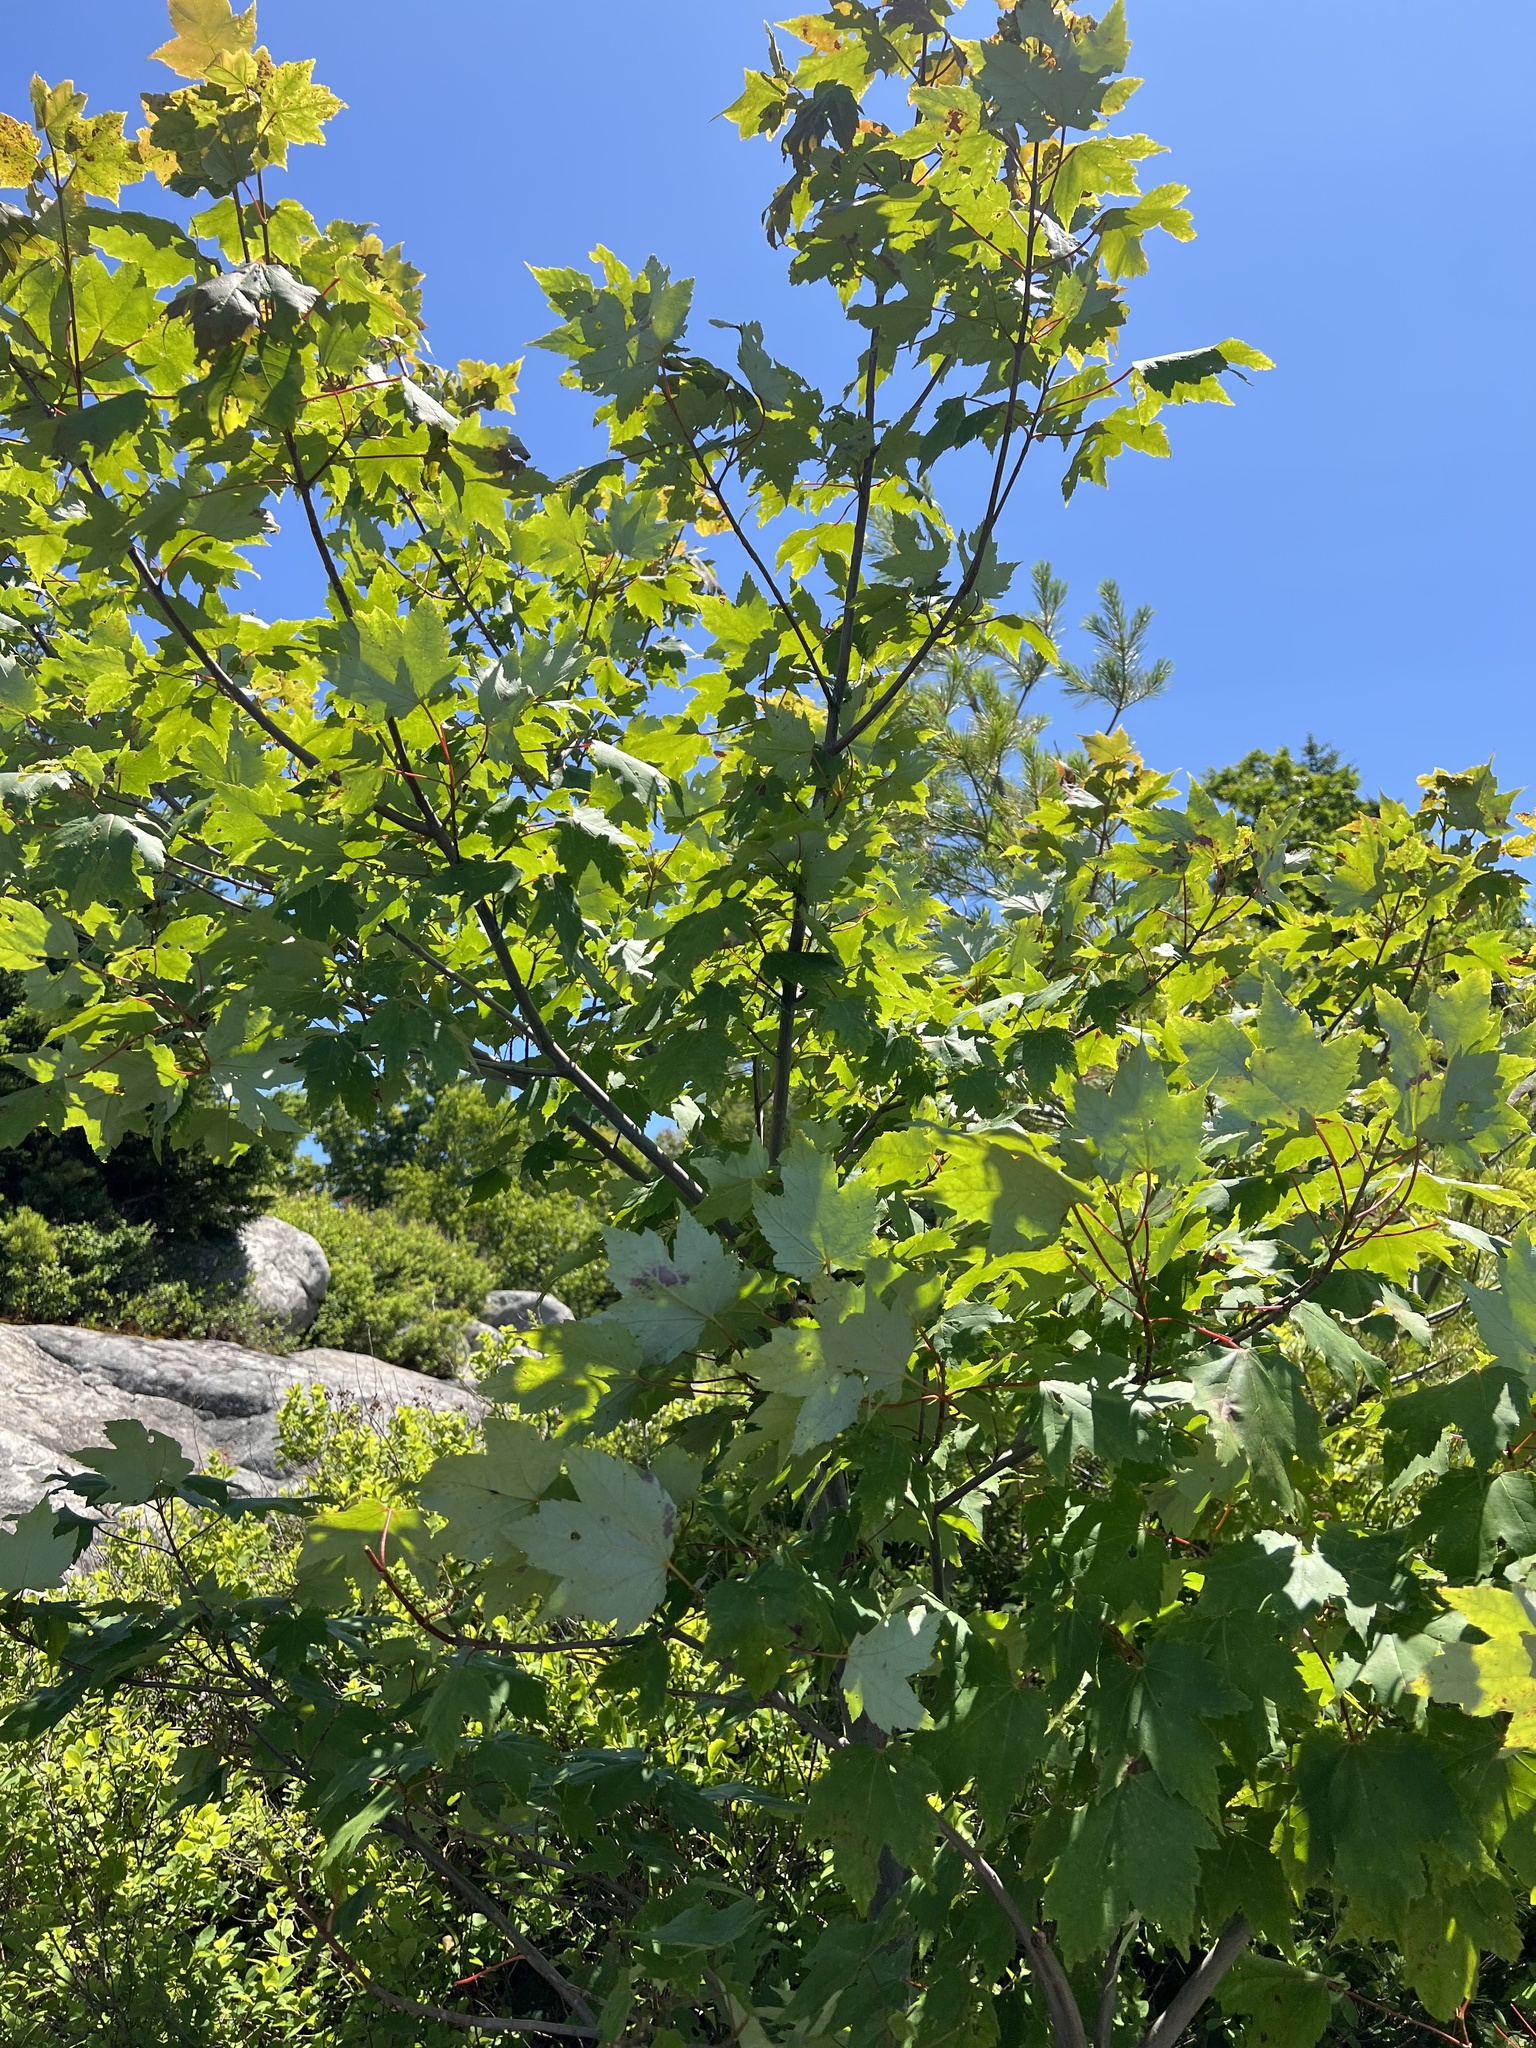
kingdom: Plantae
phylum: Tracheophyta
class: Magnoliopsida
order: Sapindales
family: Sapindaceae
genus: Acer
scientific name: Acer rubrum
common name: Red maple
